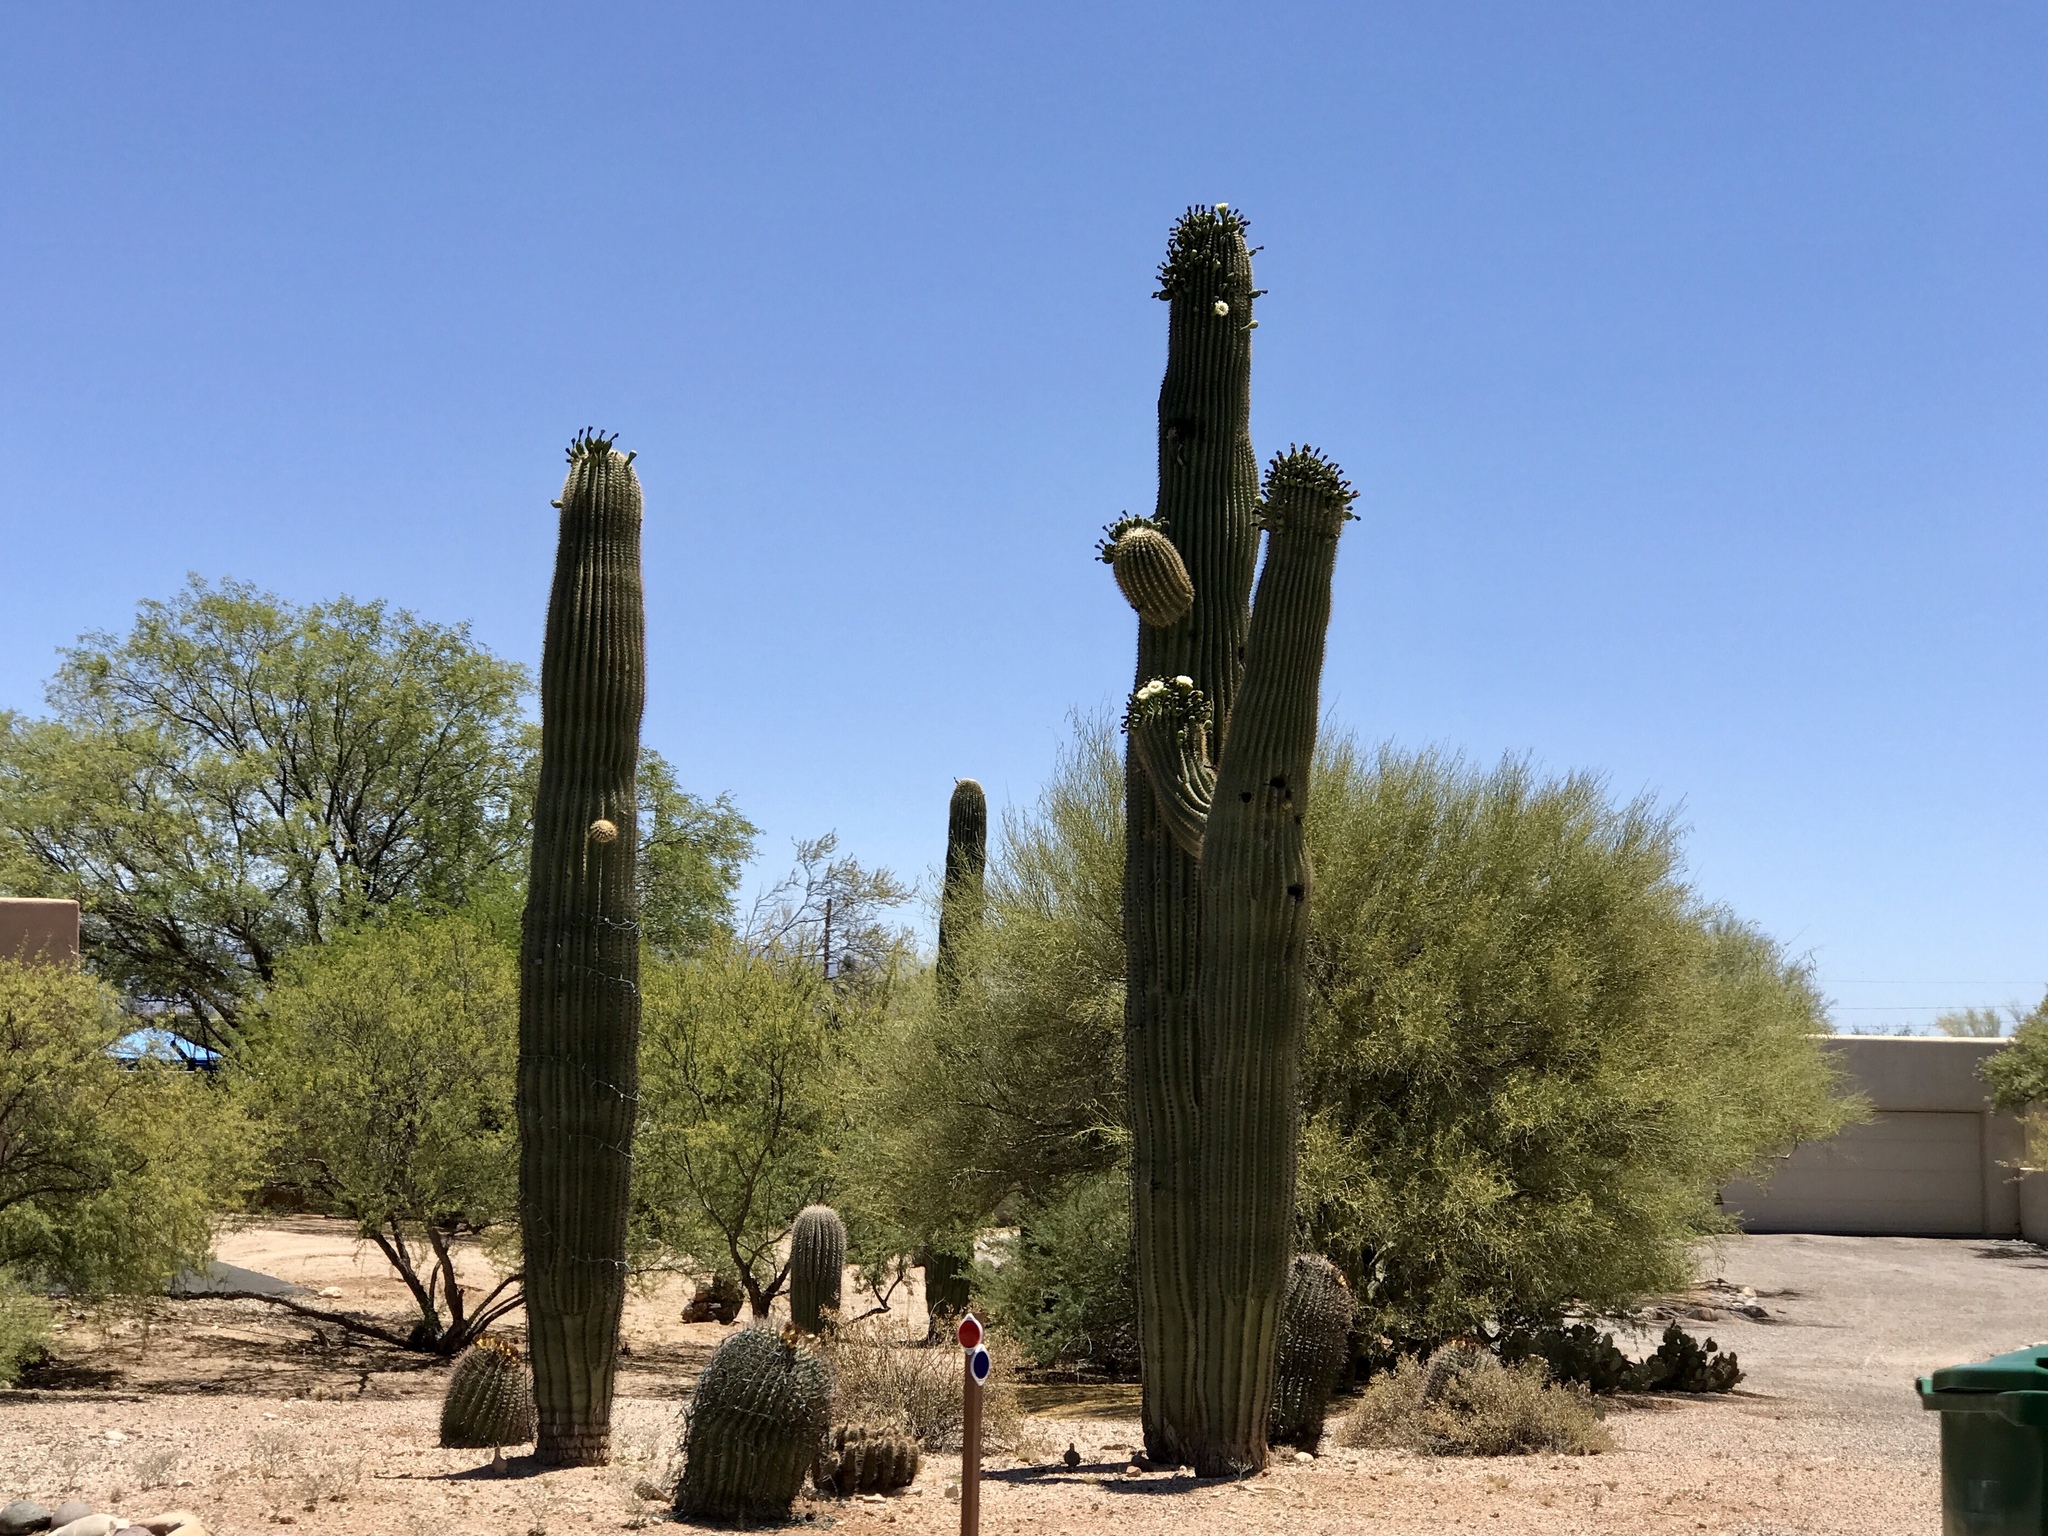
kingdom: Plantae
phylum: Tracheophyta
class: Magnoliopsida
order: Caryophyllales
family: Cactaceae
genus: Carnegiea
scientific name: Carnegiea gigantea
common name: Saguaro
